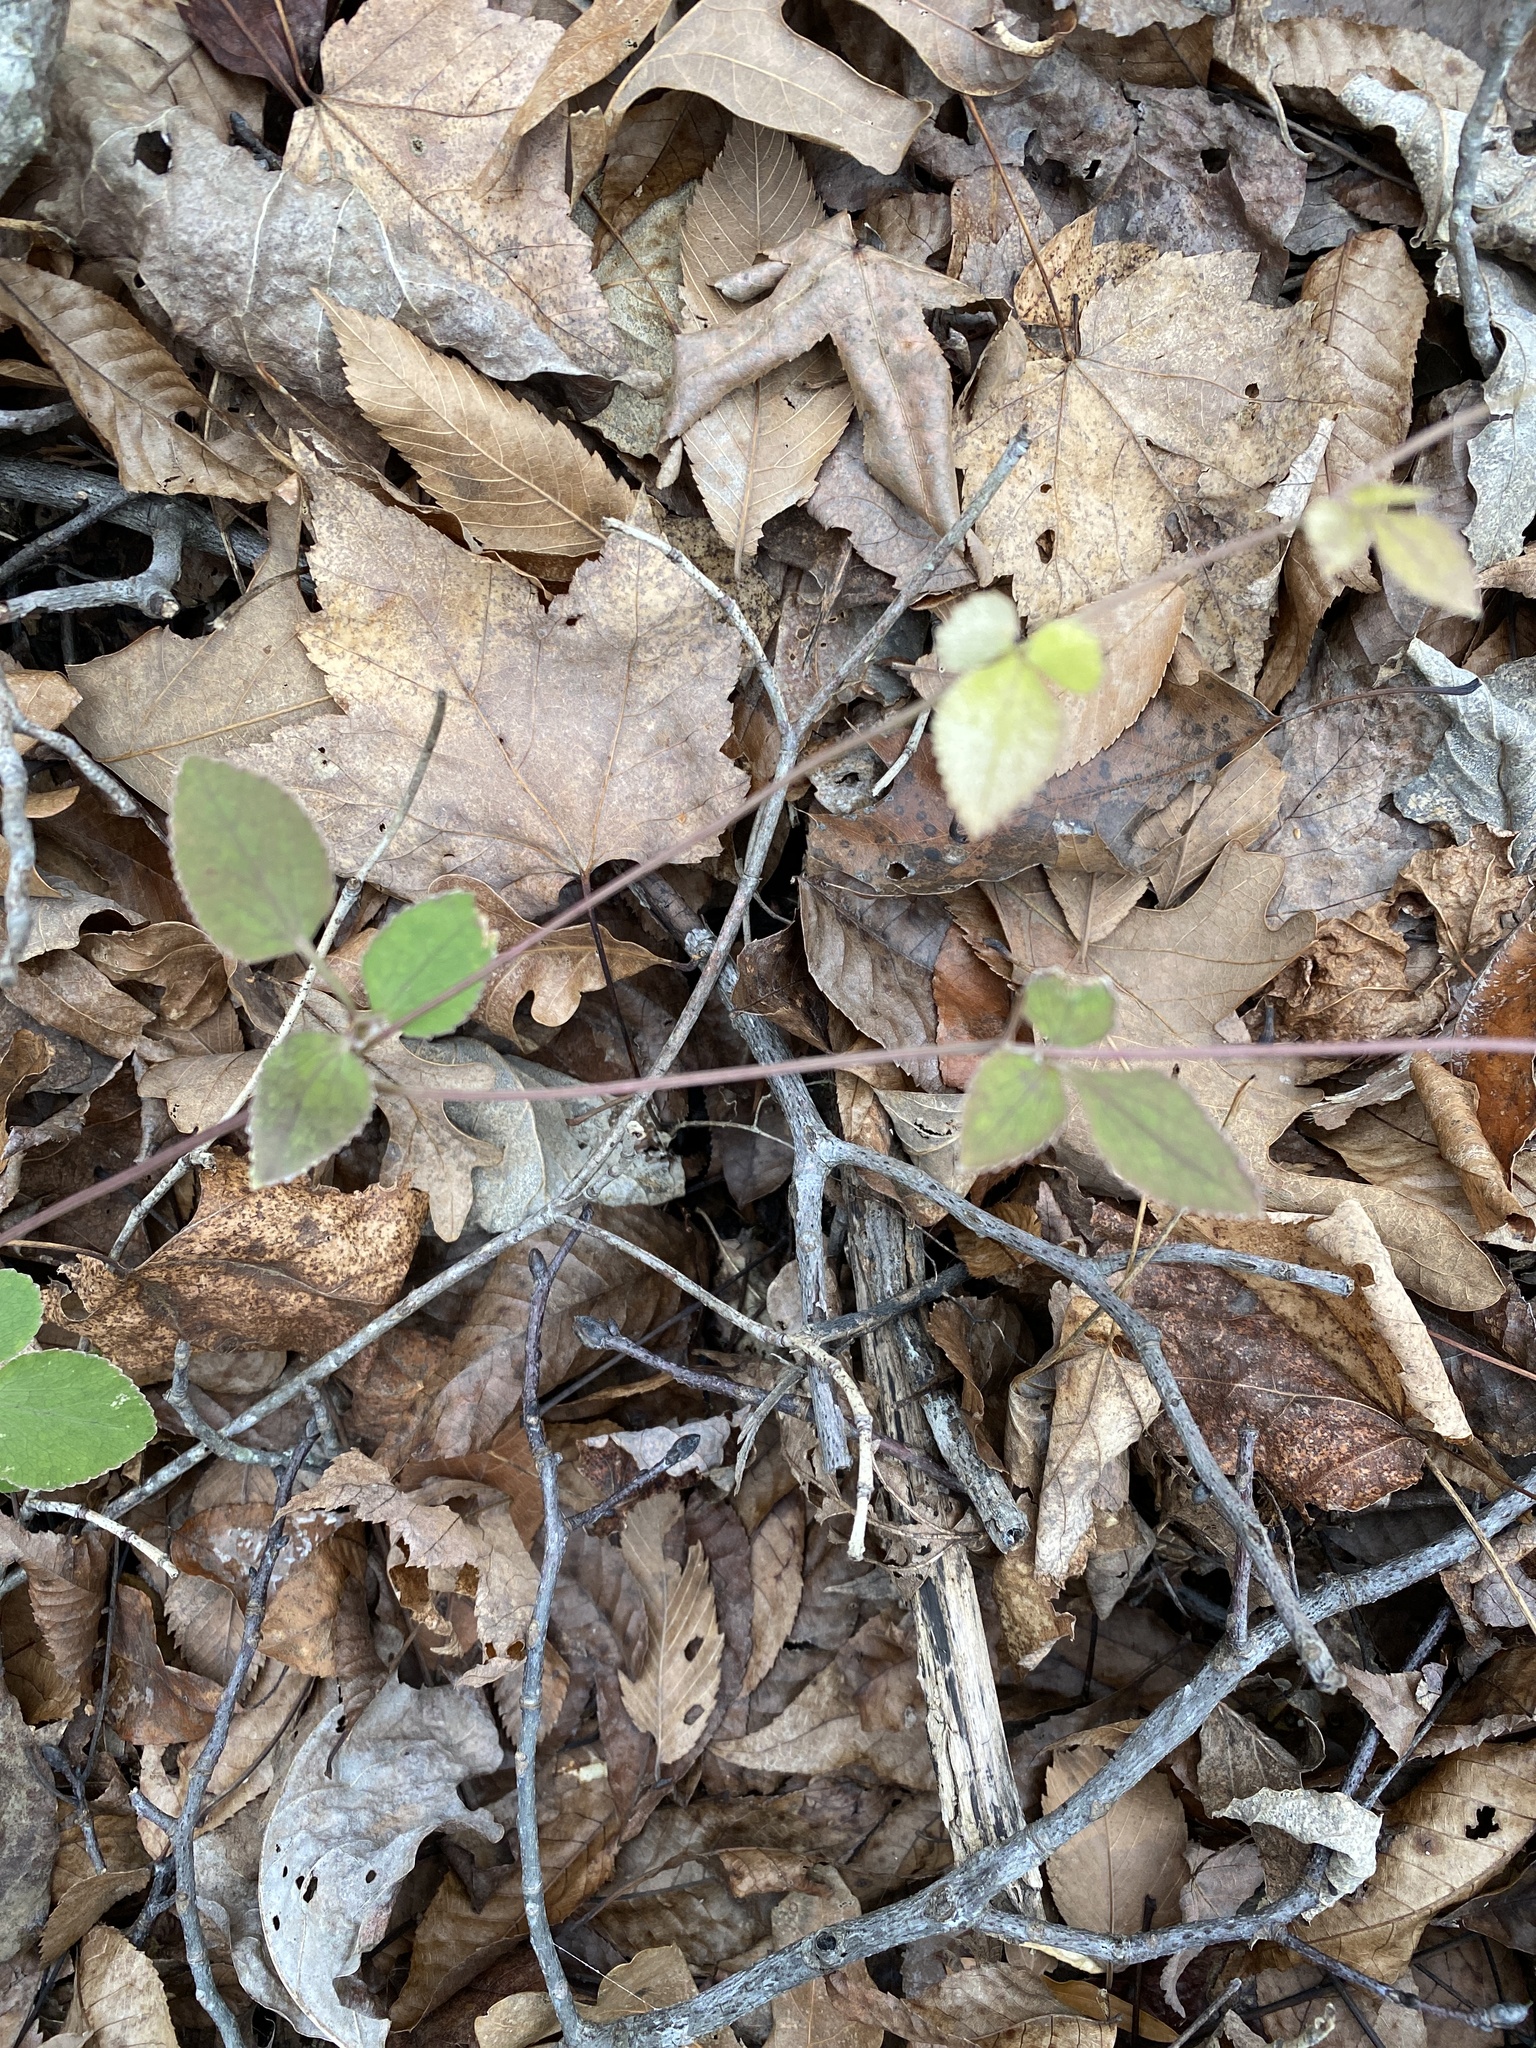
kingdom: Plantae
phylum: Tracheophyta
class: Magnoliopsida
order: Apiales
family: Apiaceae
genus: Thaspium
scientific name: Thaspium trifoliatum
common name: Purple meadow-parsnip
